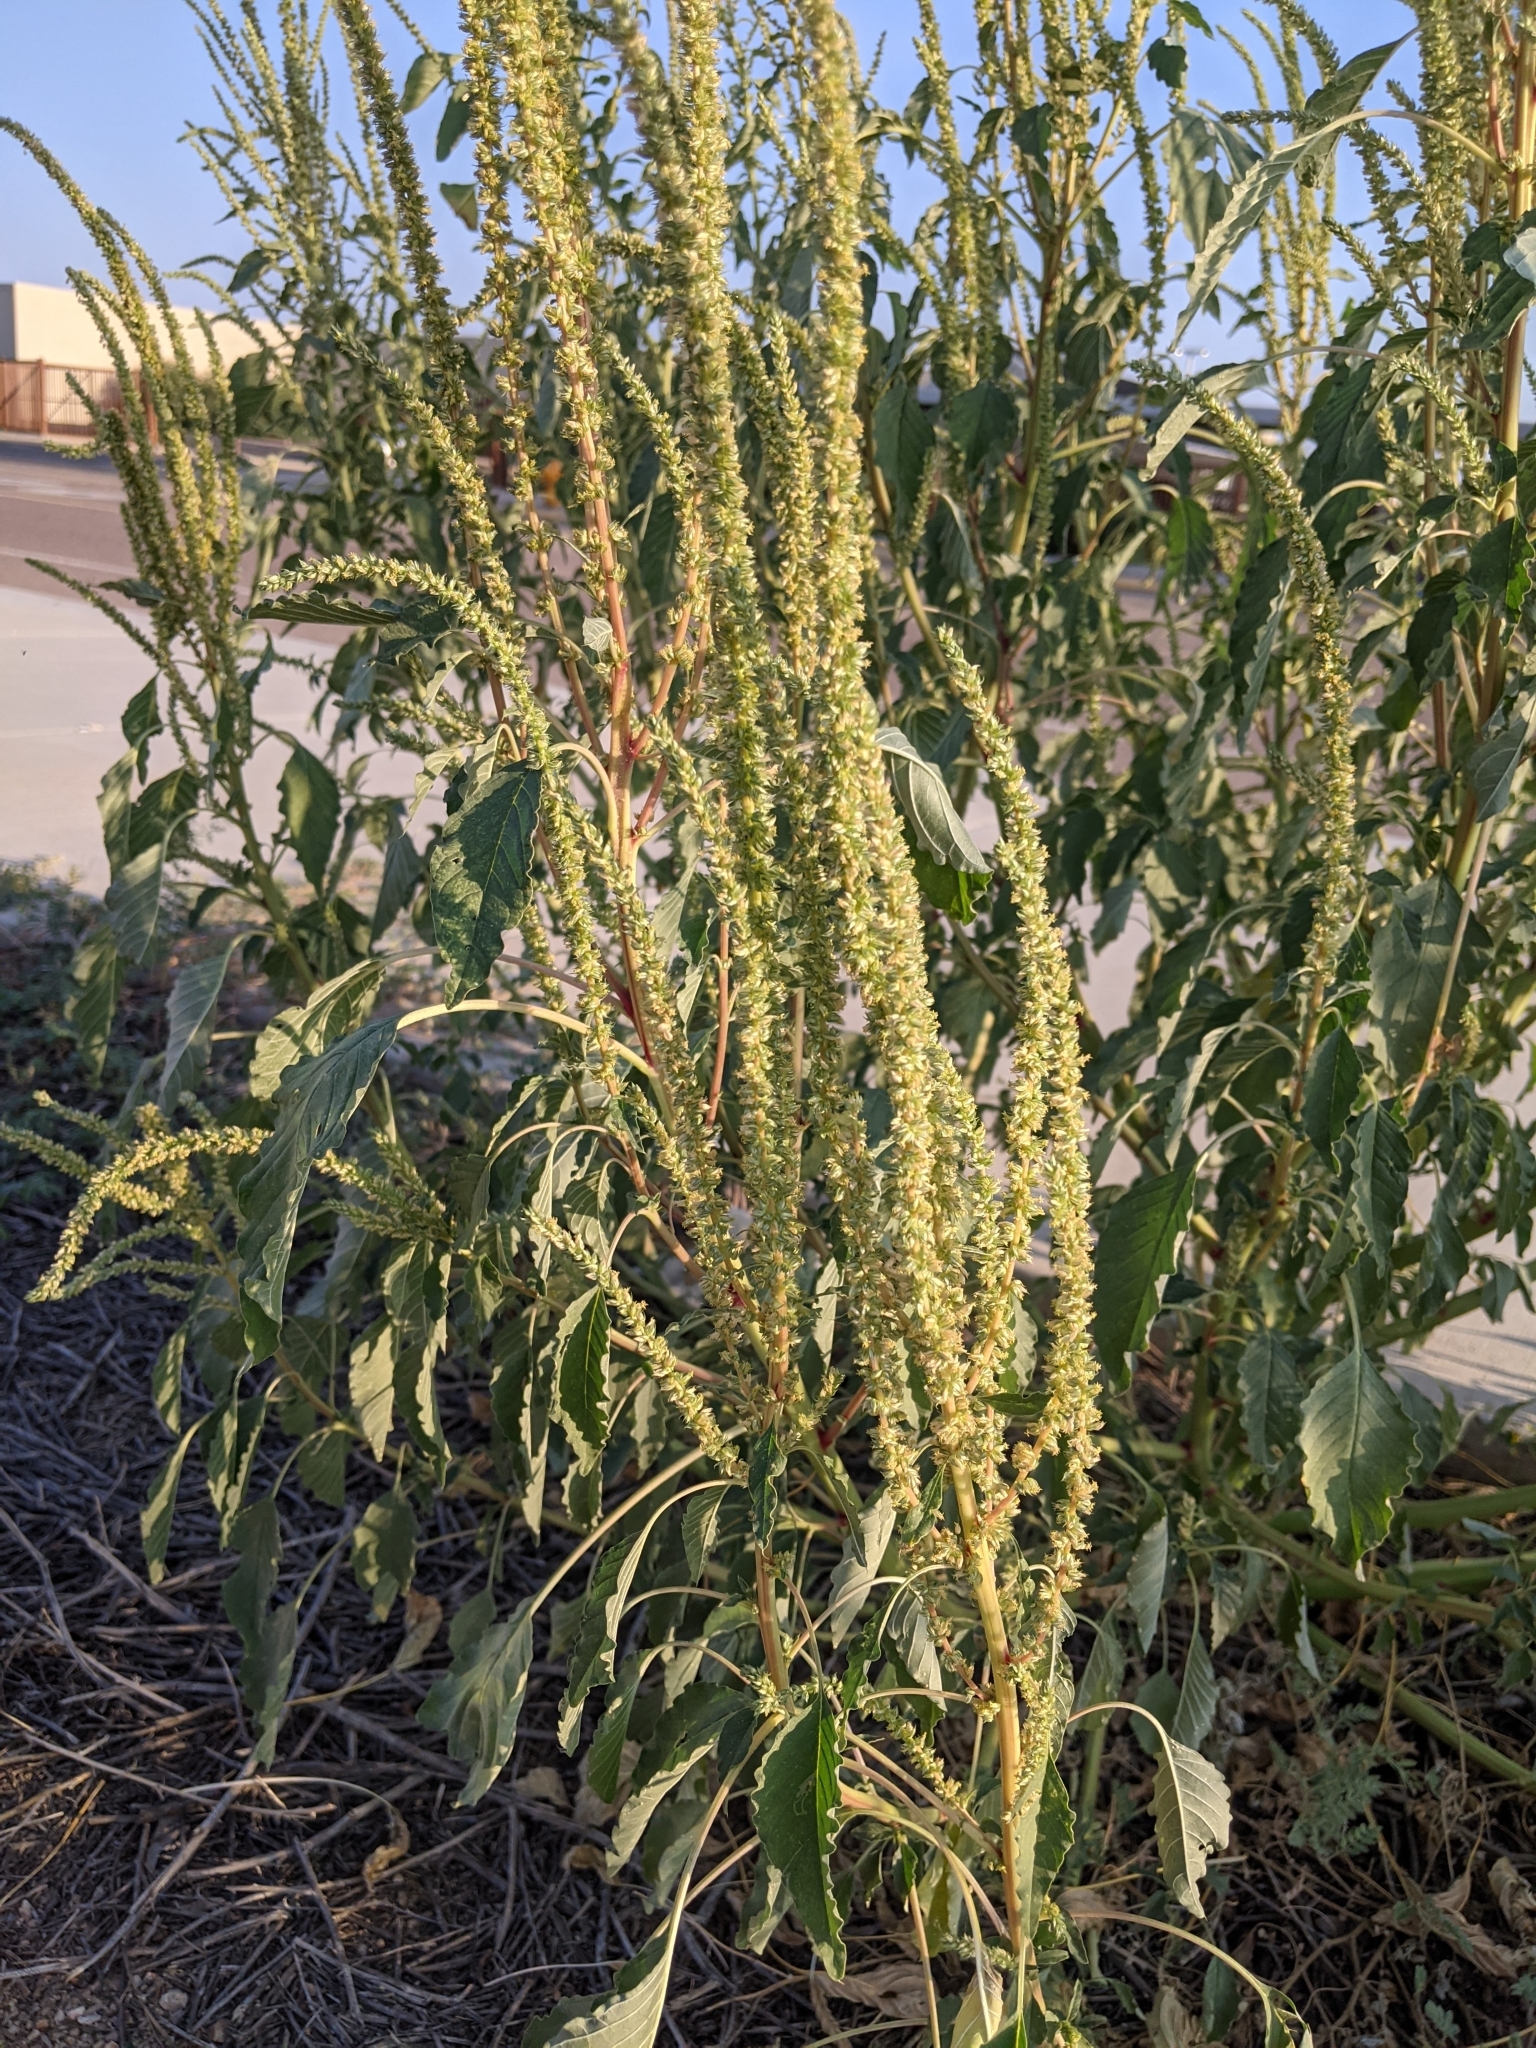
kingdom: Plantae
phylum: Tracheophyta
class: Magnoliopsida
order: Caryophyllales
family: Amaranthaceae
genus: Amaranthus
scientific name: Amaranthus palmeri
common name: Dioecious amaranth
